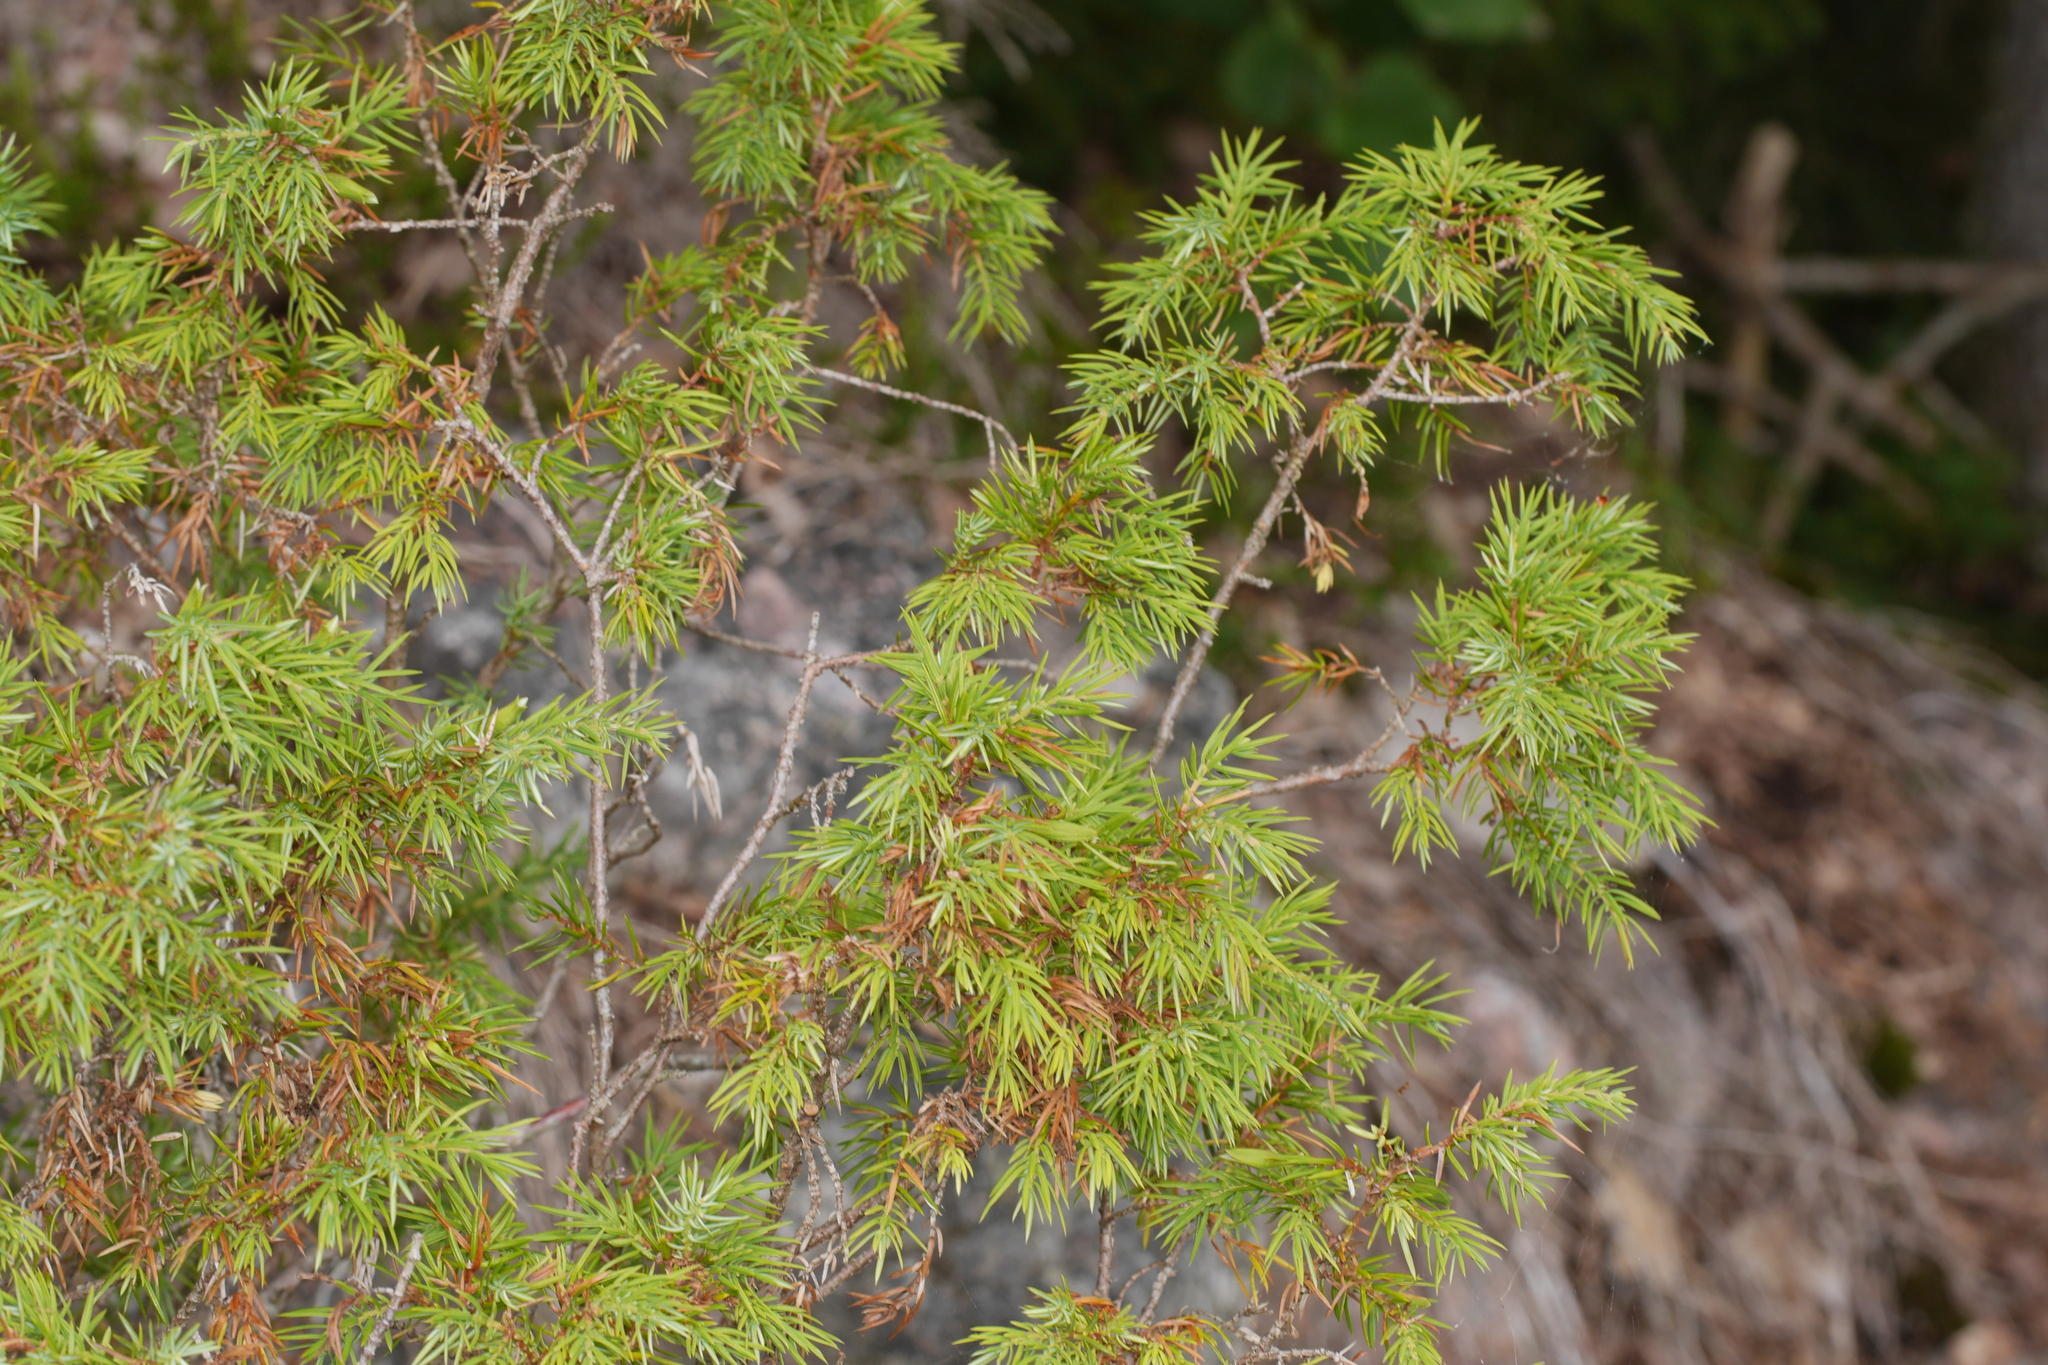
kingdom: Plantae
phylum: Tracheophyta
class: Pinopsida
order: Pinales
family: Cupressaceae
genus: Juniperus
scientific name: Juniperus communis
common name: Common juniper
